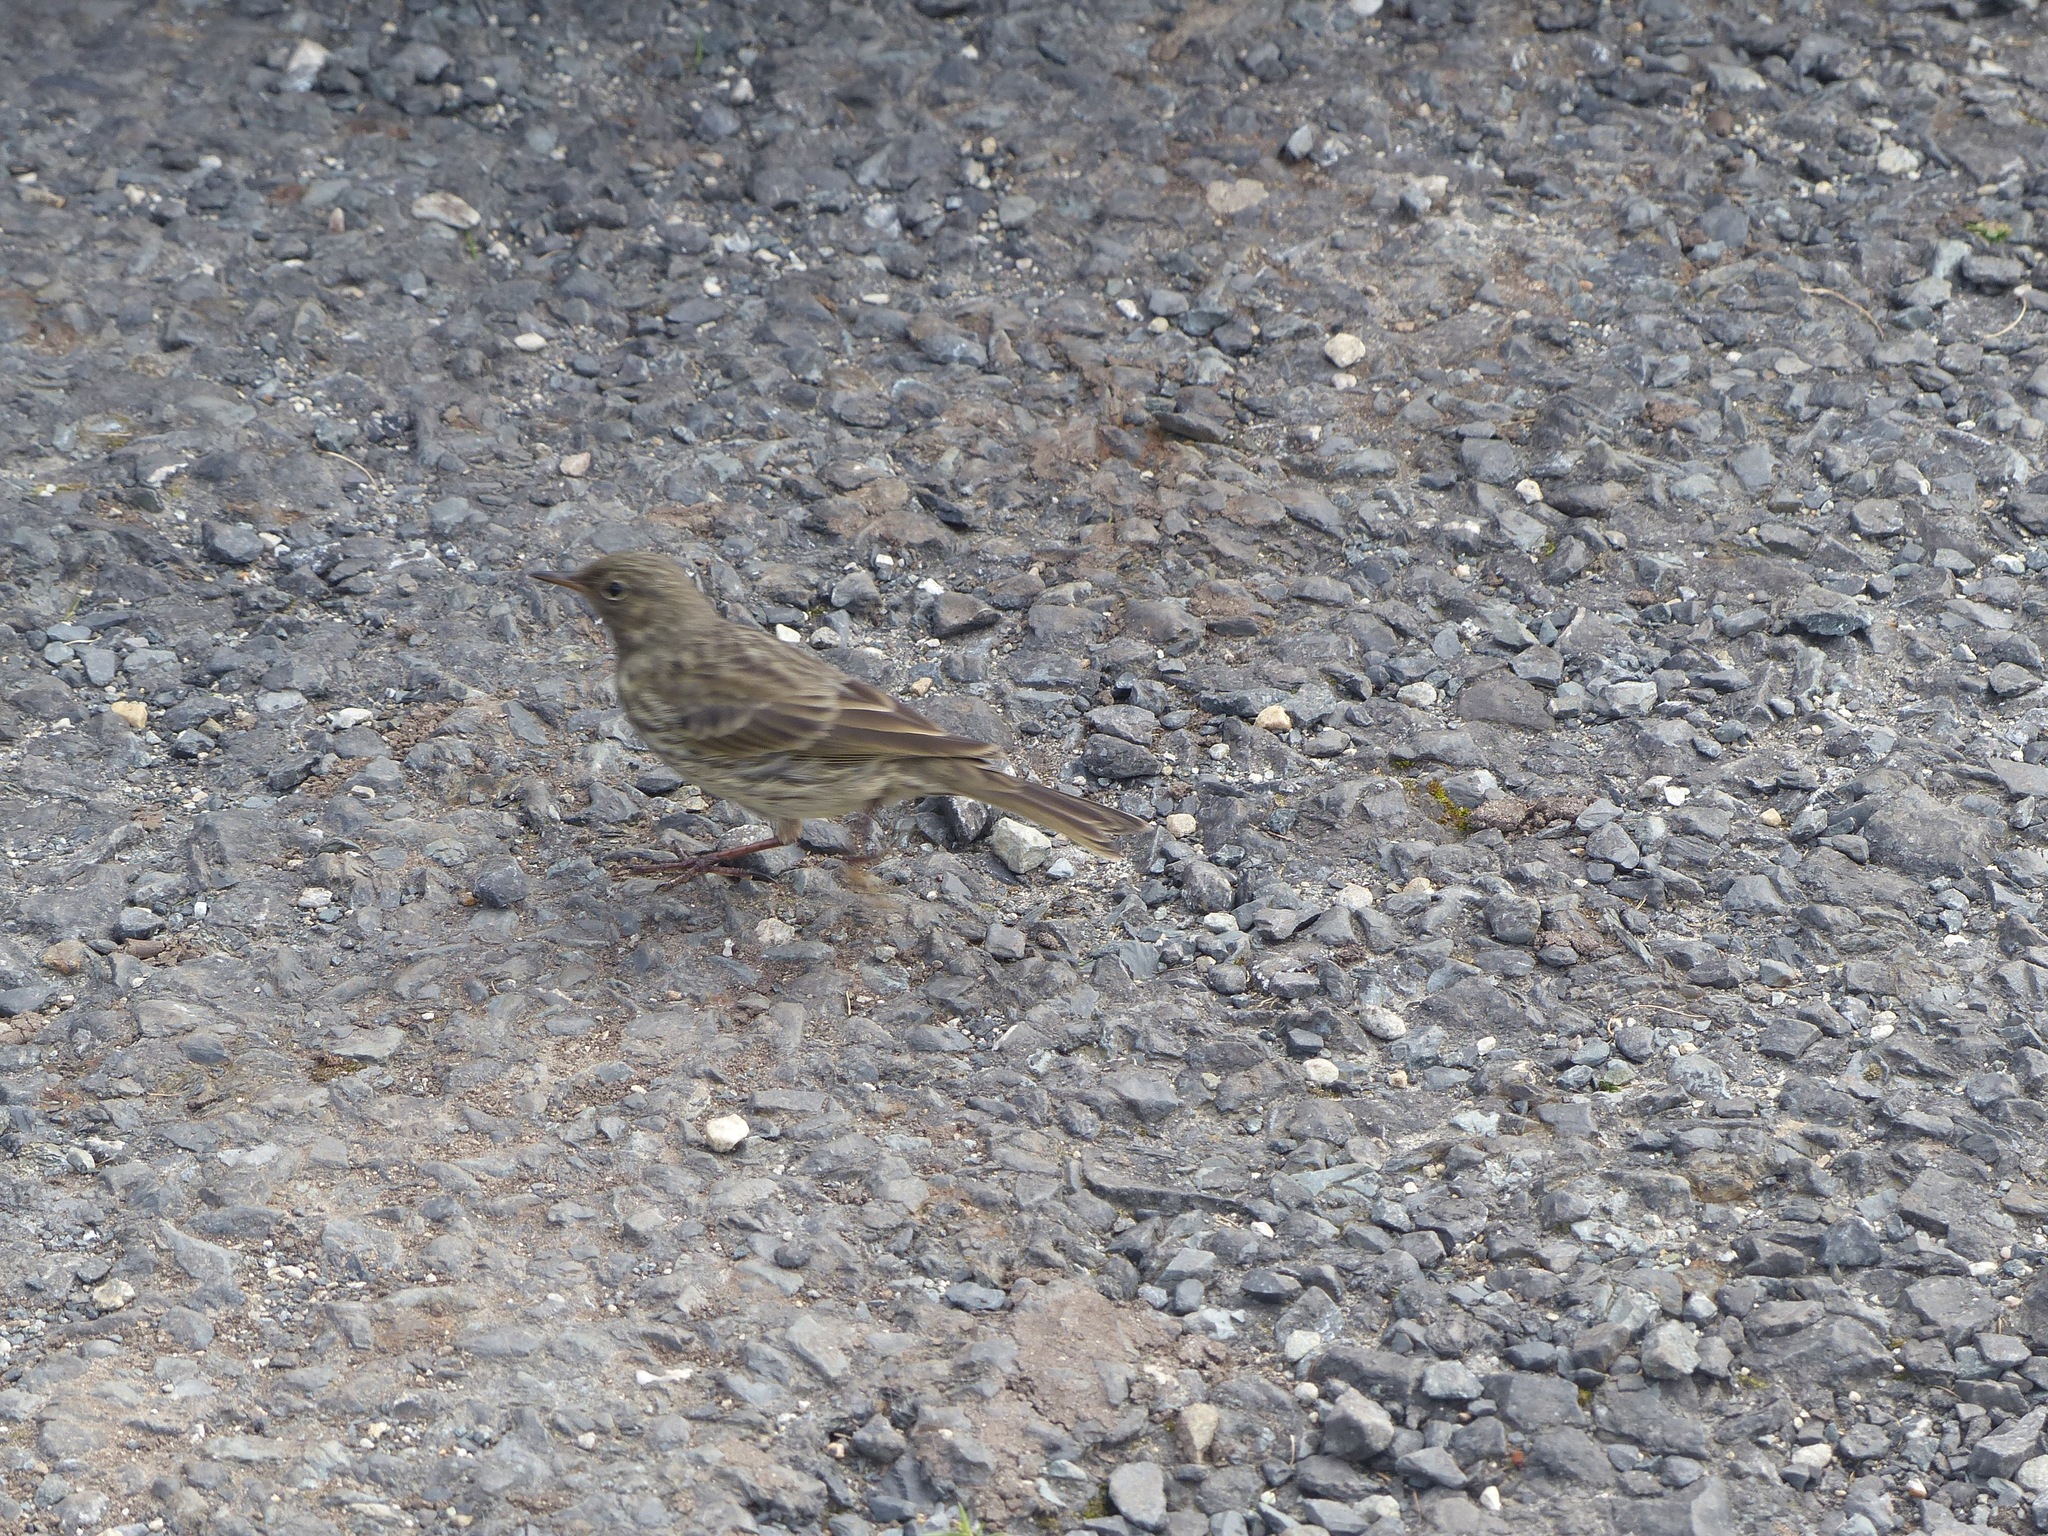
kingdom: Animalia
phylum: Chordata
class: Aves
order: Passeriformes
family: Motacillidae
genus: Anthus
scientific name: Anthus petrosus
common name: Eurasian rock pipit
